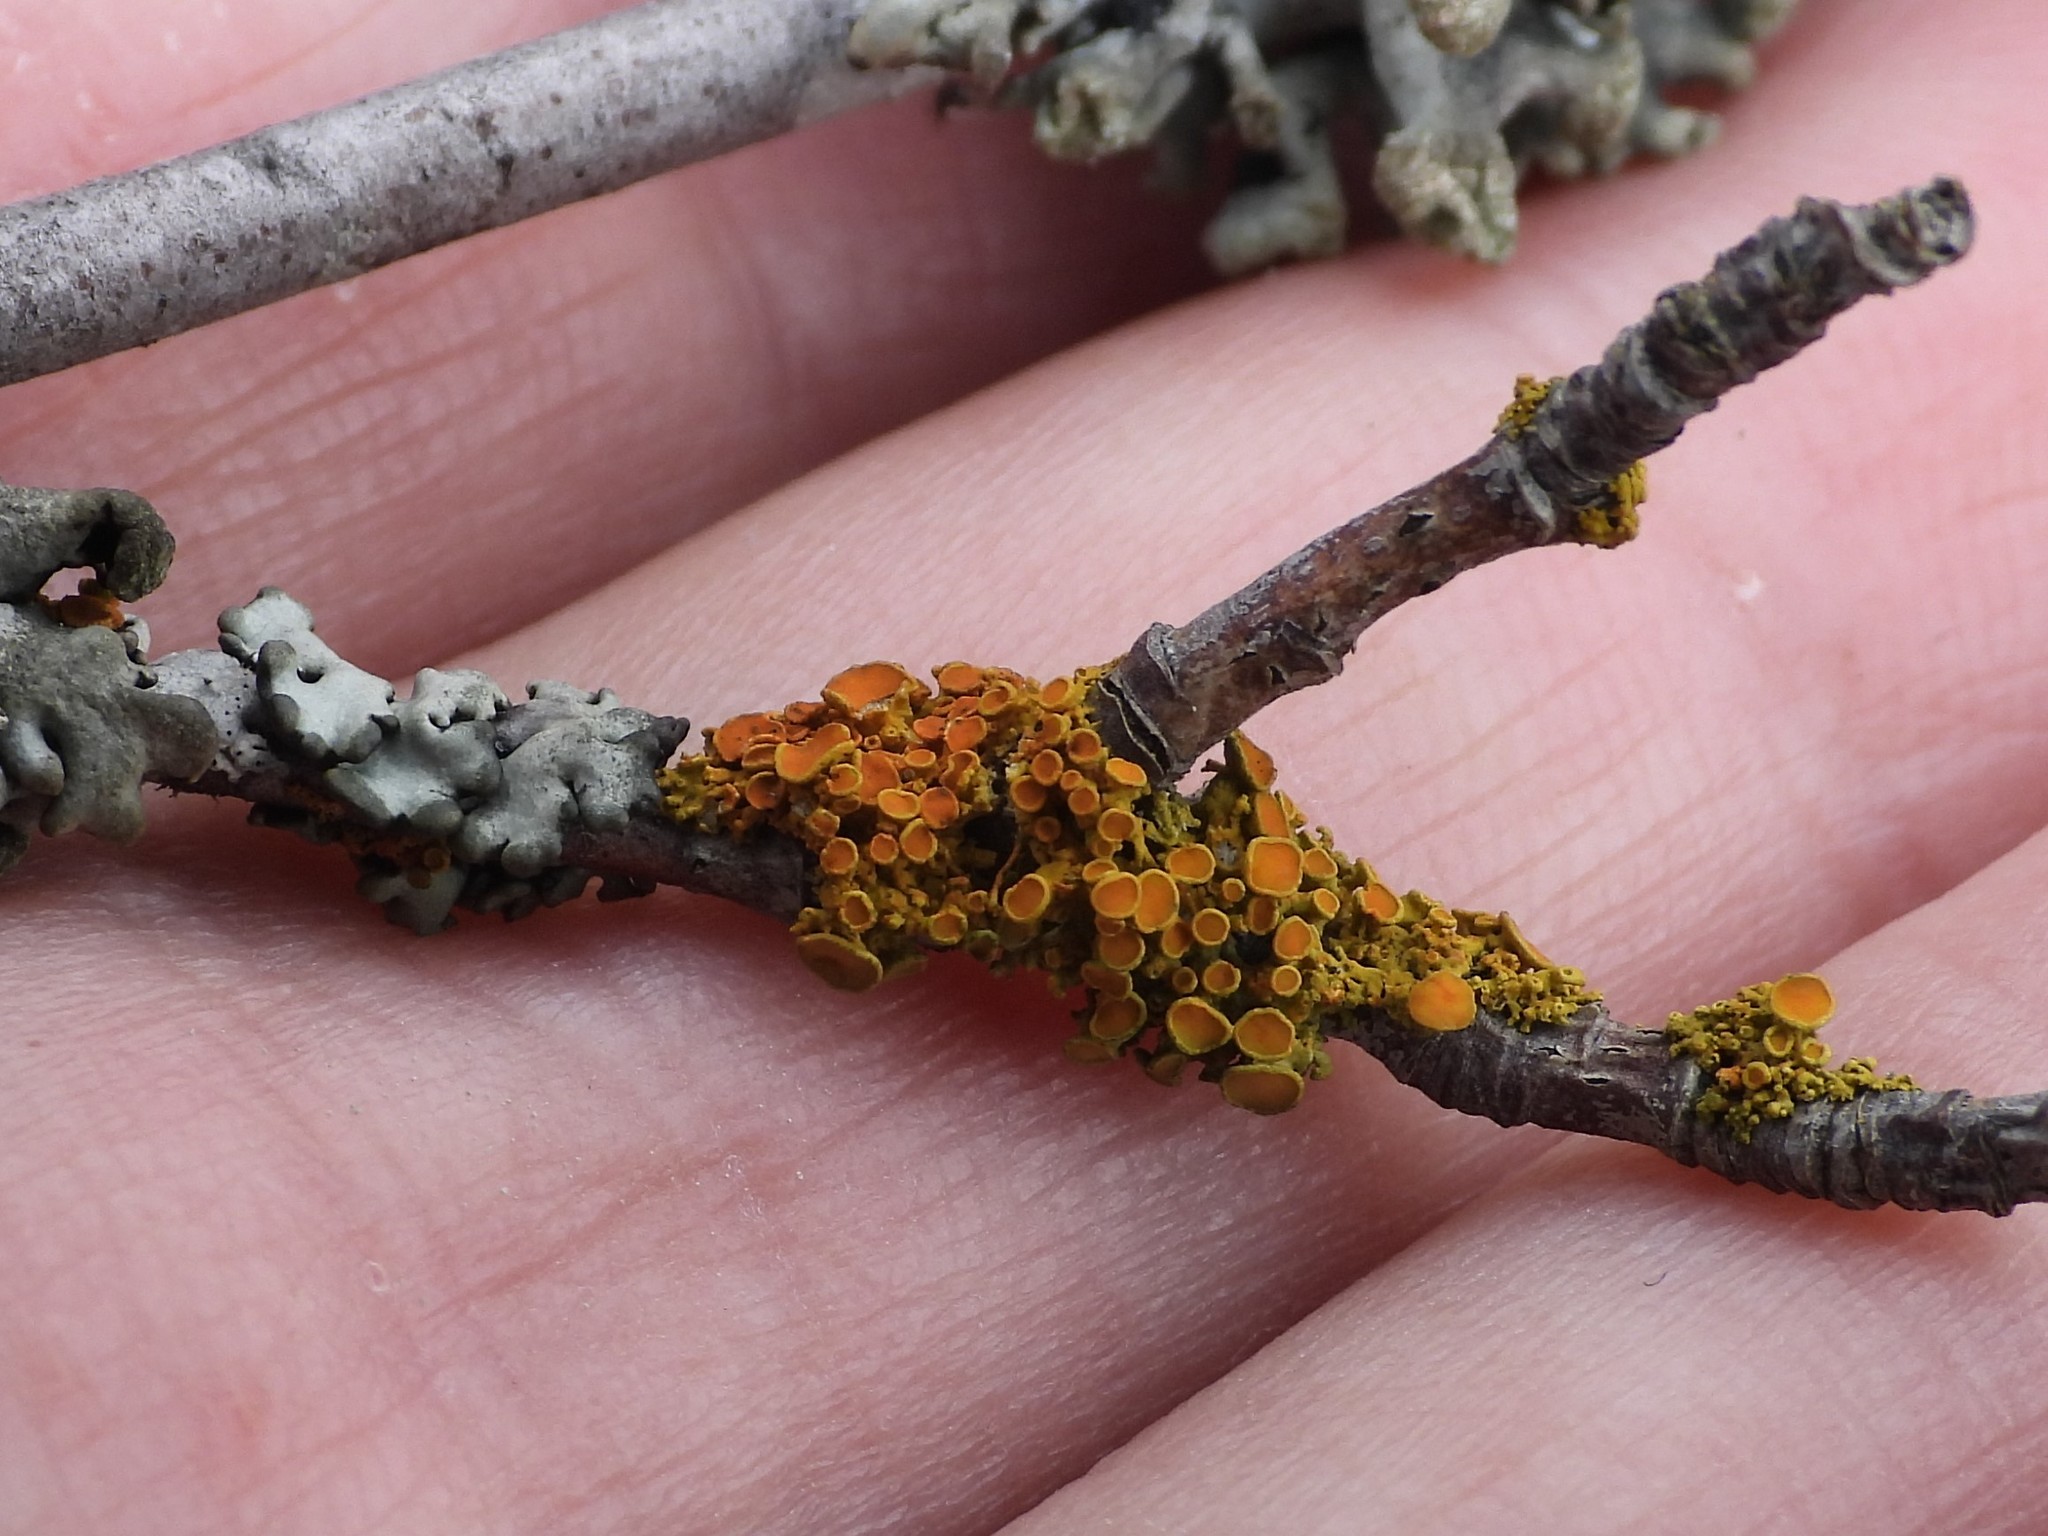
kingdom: Fungi
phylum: Ascomycota
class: Lecanoromycetes
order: Teloschistales
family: Teloschistaceae
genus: Polycauliona
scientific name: Polycauliona polycarpa
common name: Pin-cushion sunburst lichen
